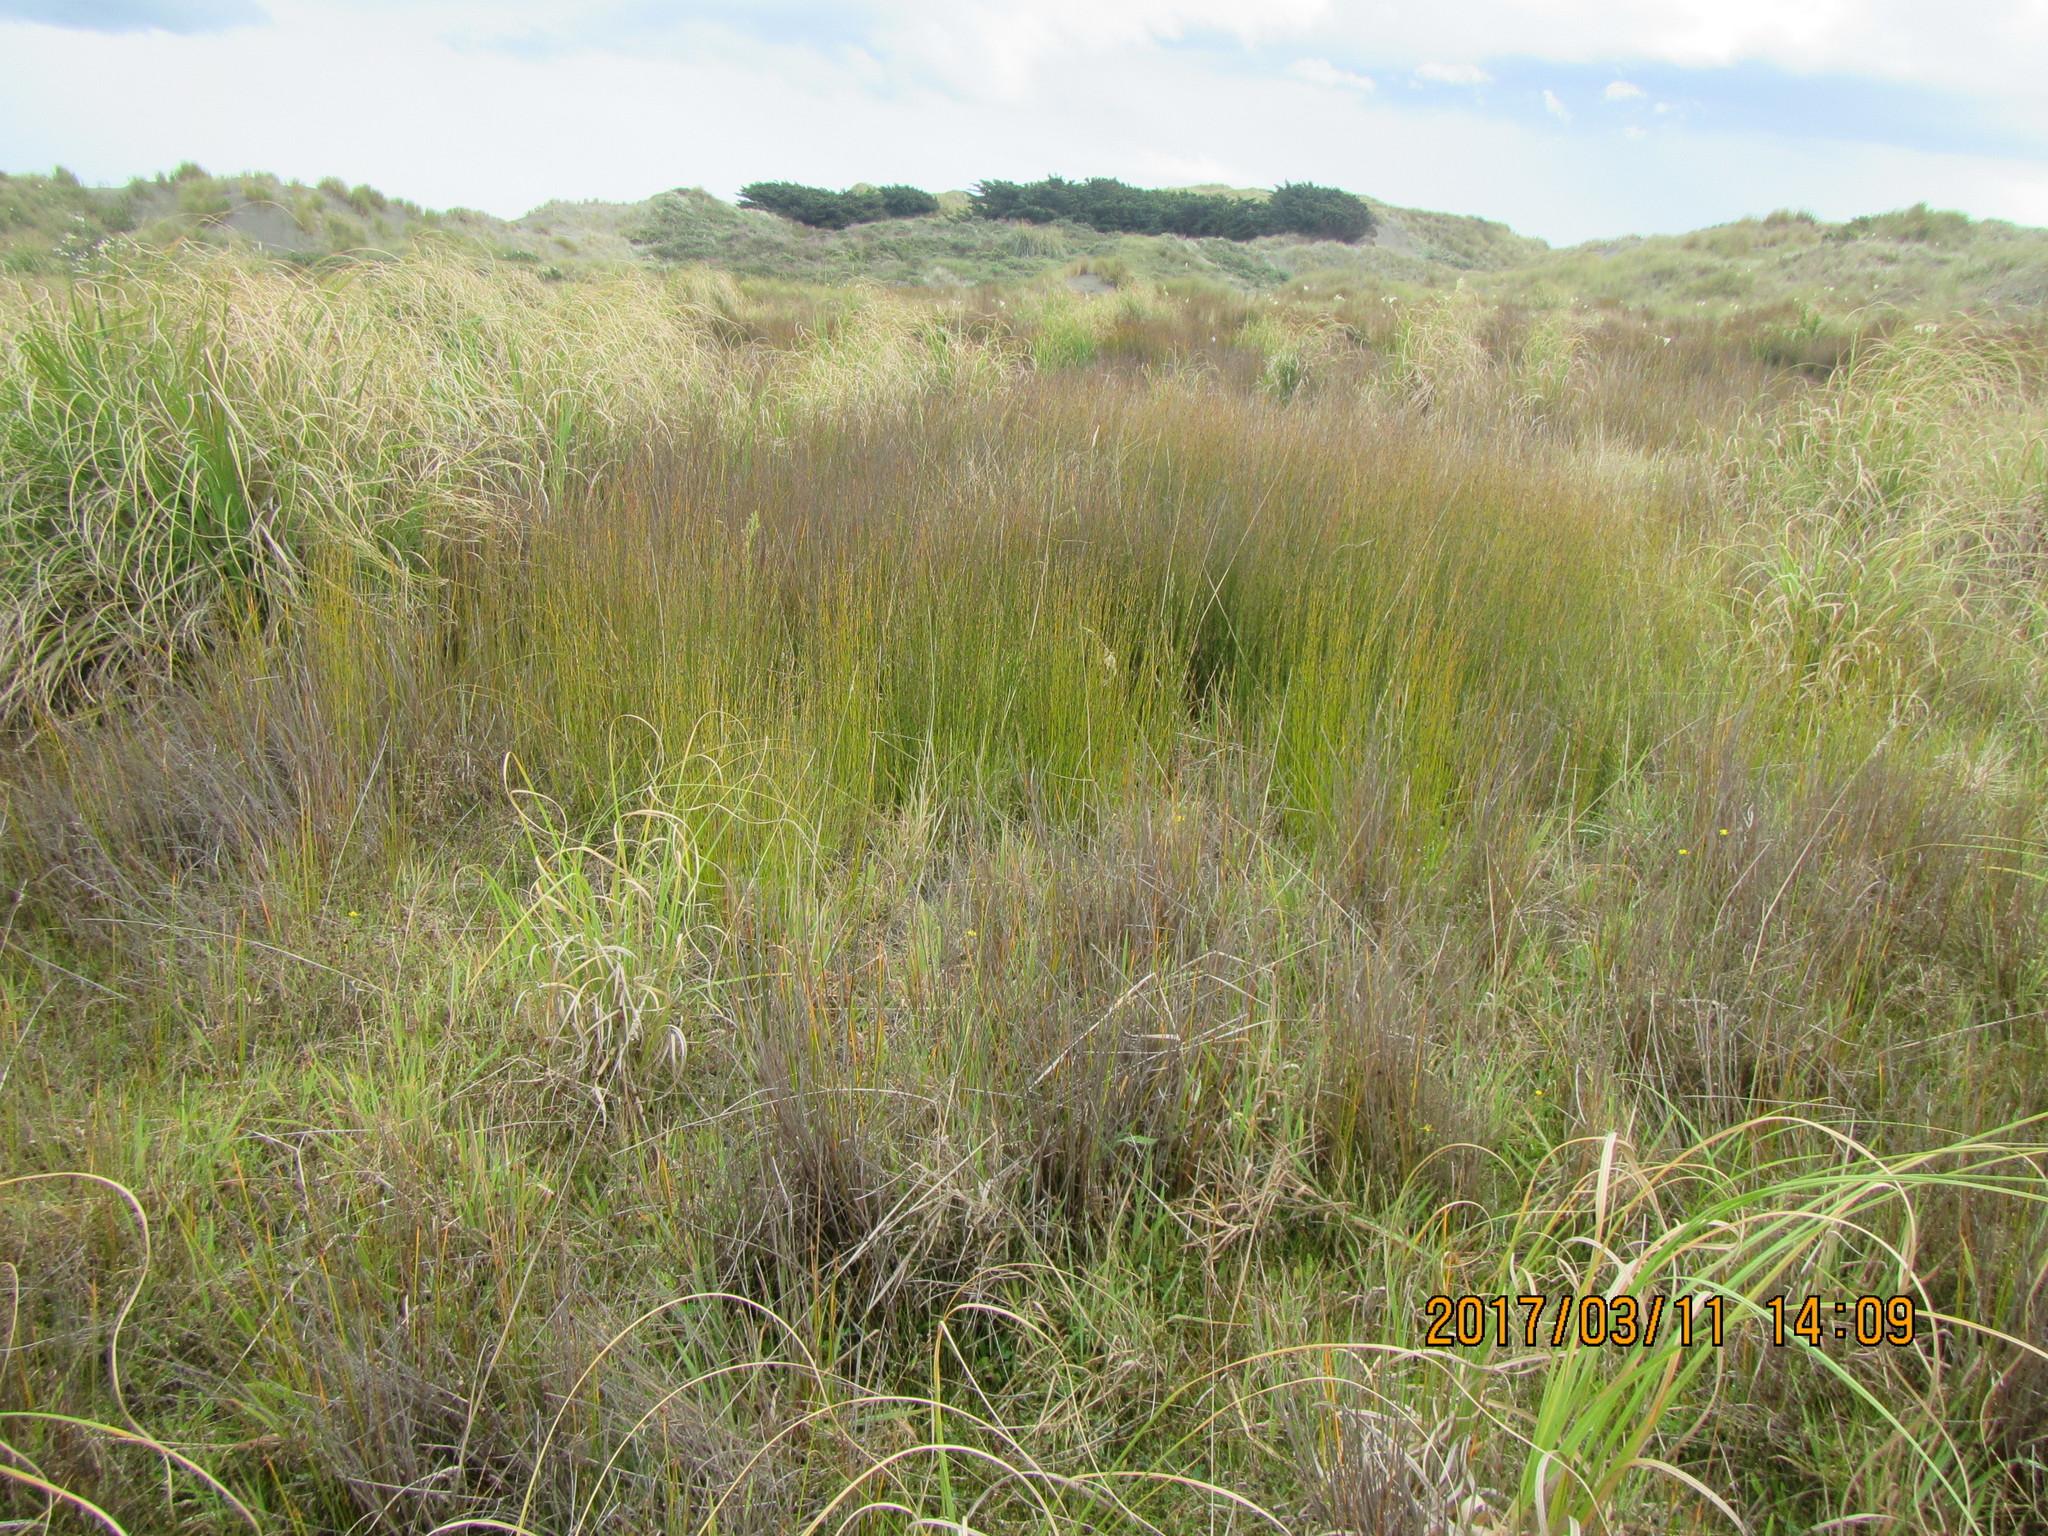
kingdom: Plantae
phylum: Tracheophyta
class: Liliopsida
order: Poales
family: Restionaceae
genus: Apodasmia
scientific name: Apodasmia similis
